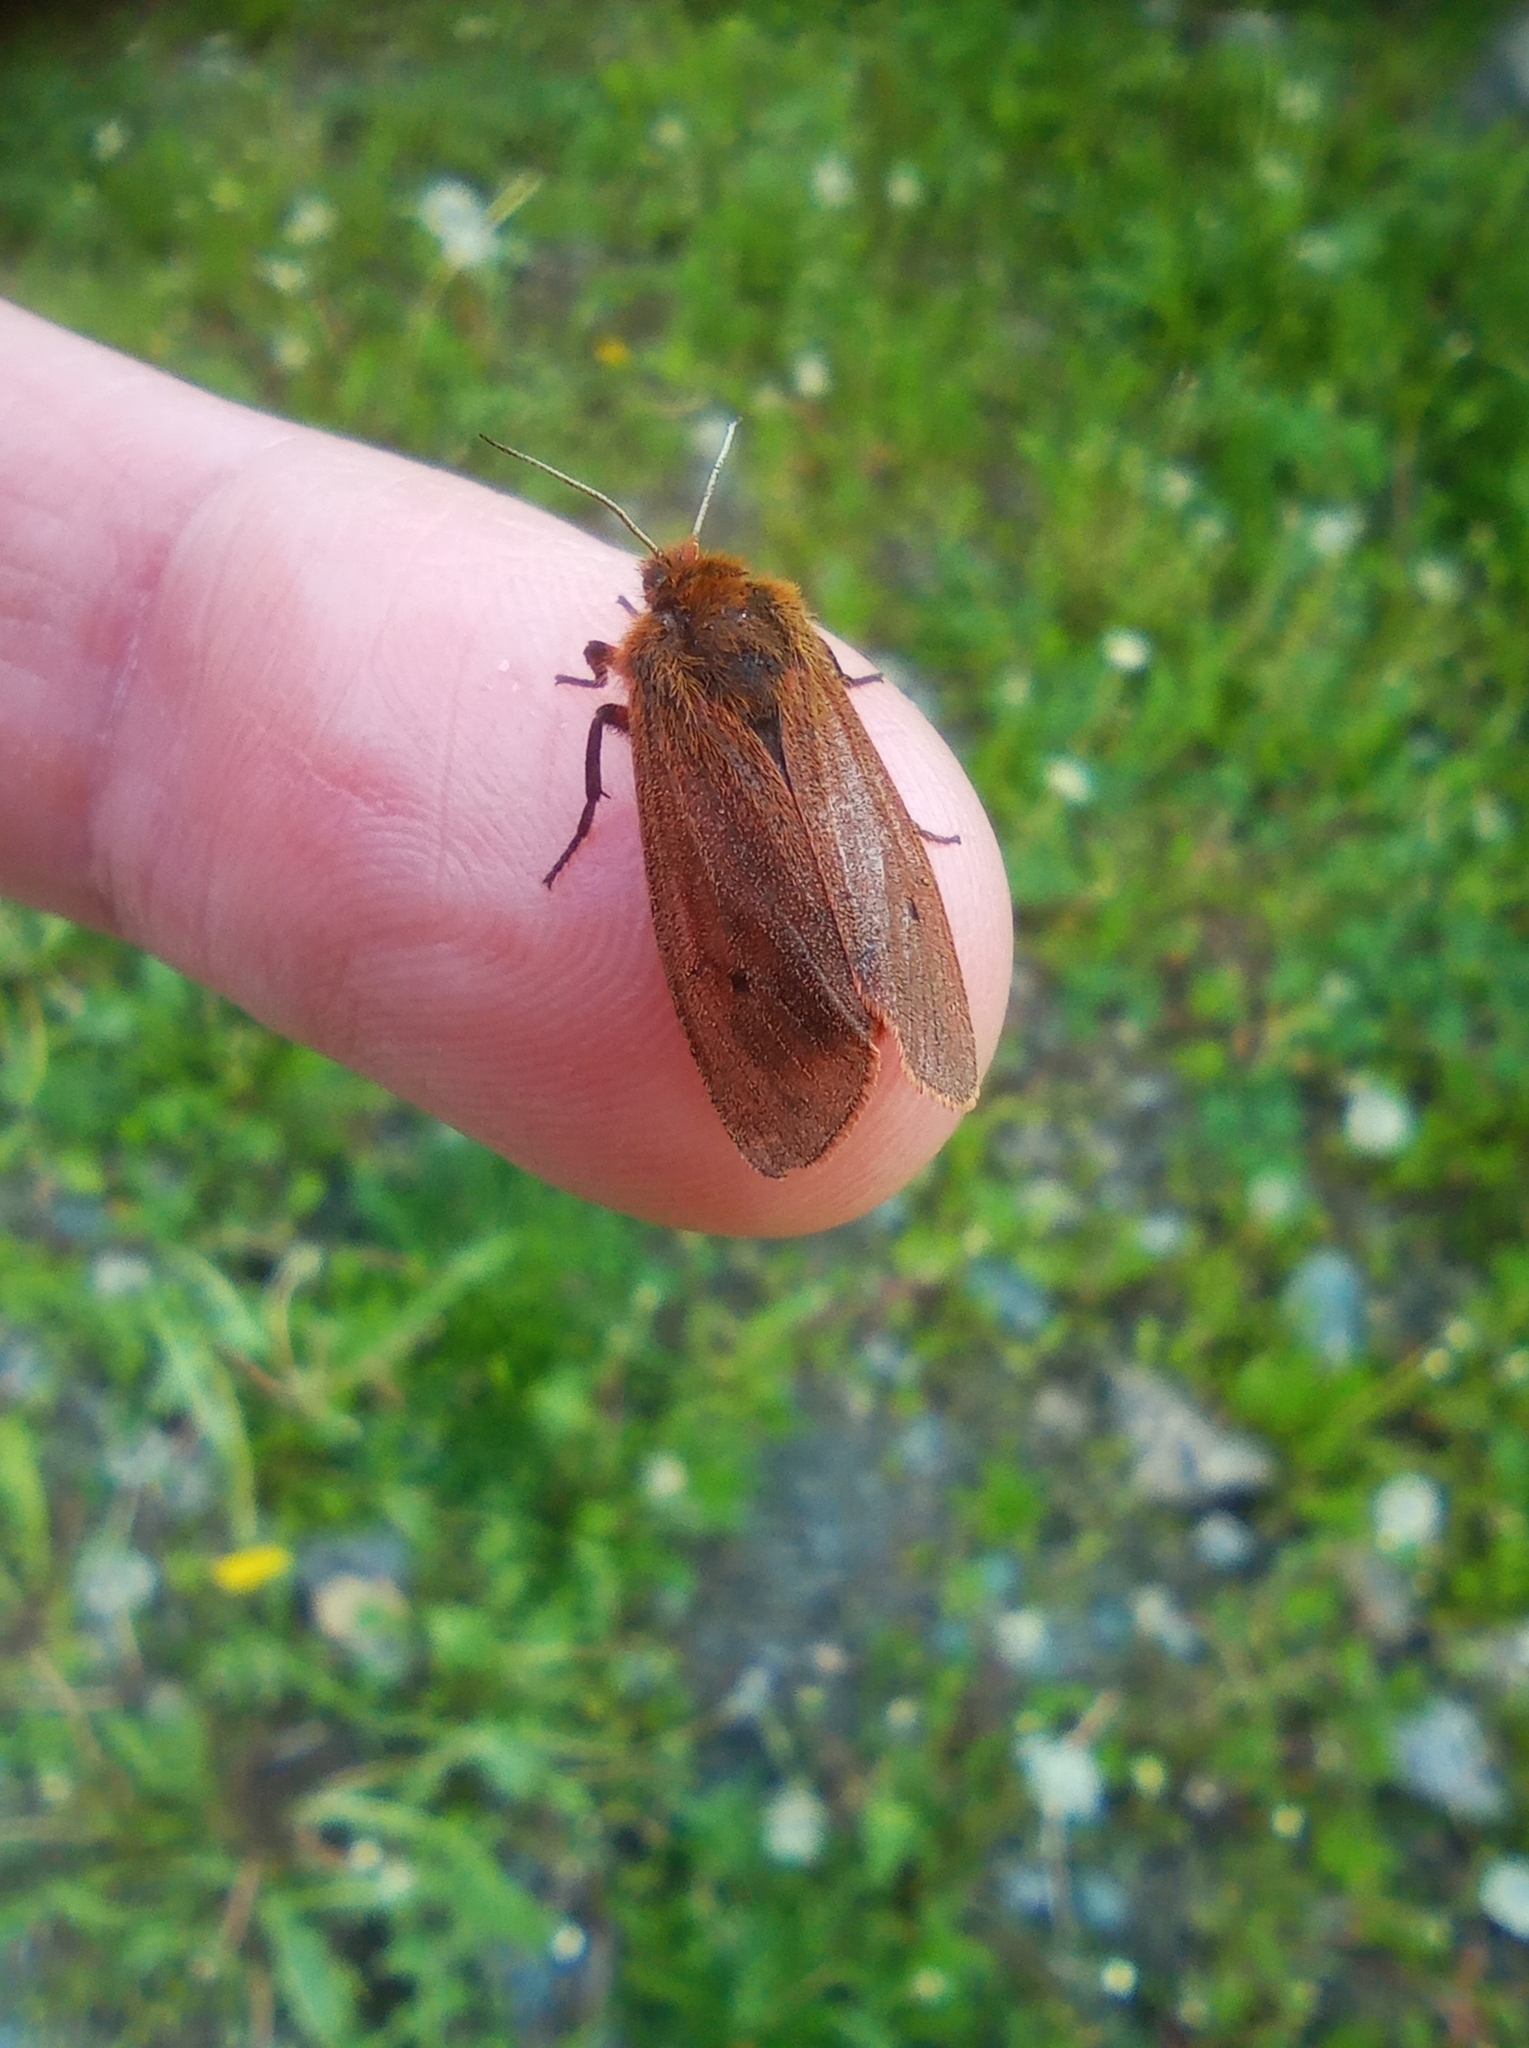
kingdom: Animalia
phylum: Arthropoda
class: Insecta
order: Lepidoptera
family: Erebidae
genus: Phragmatobia
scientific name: Phragmatobia fuliginosa
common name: Ruby tiger
